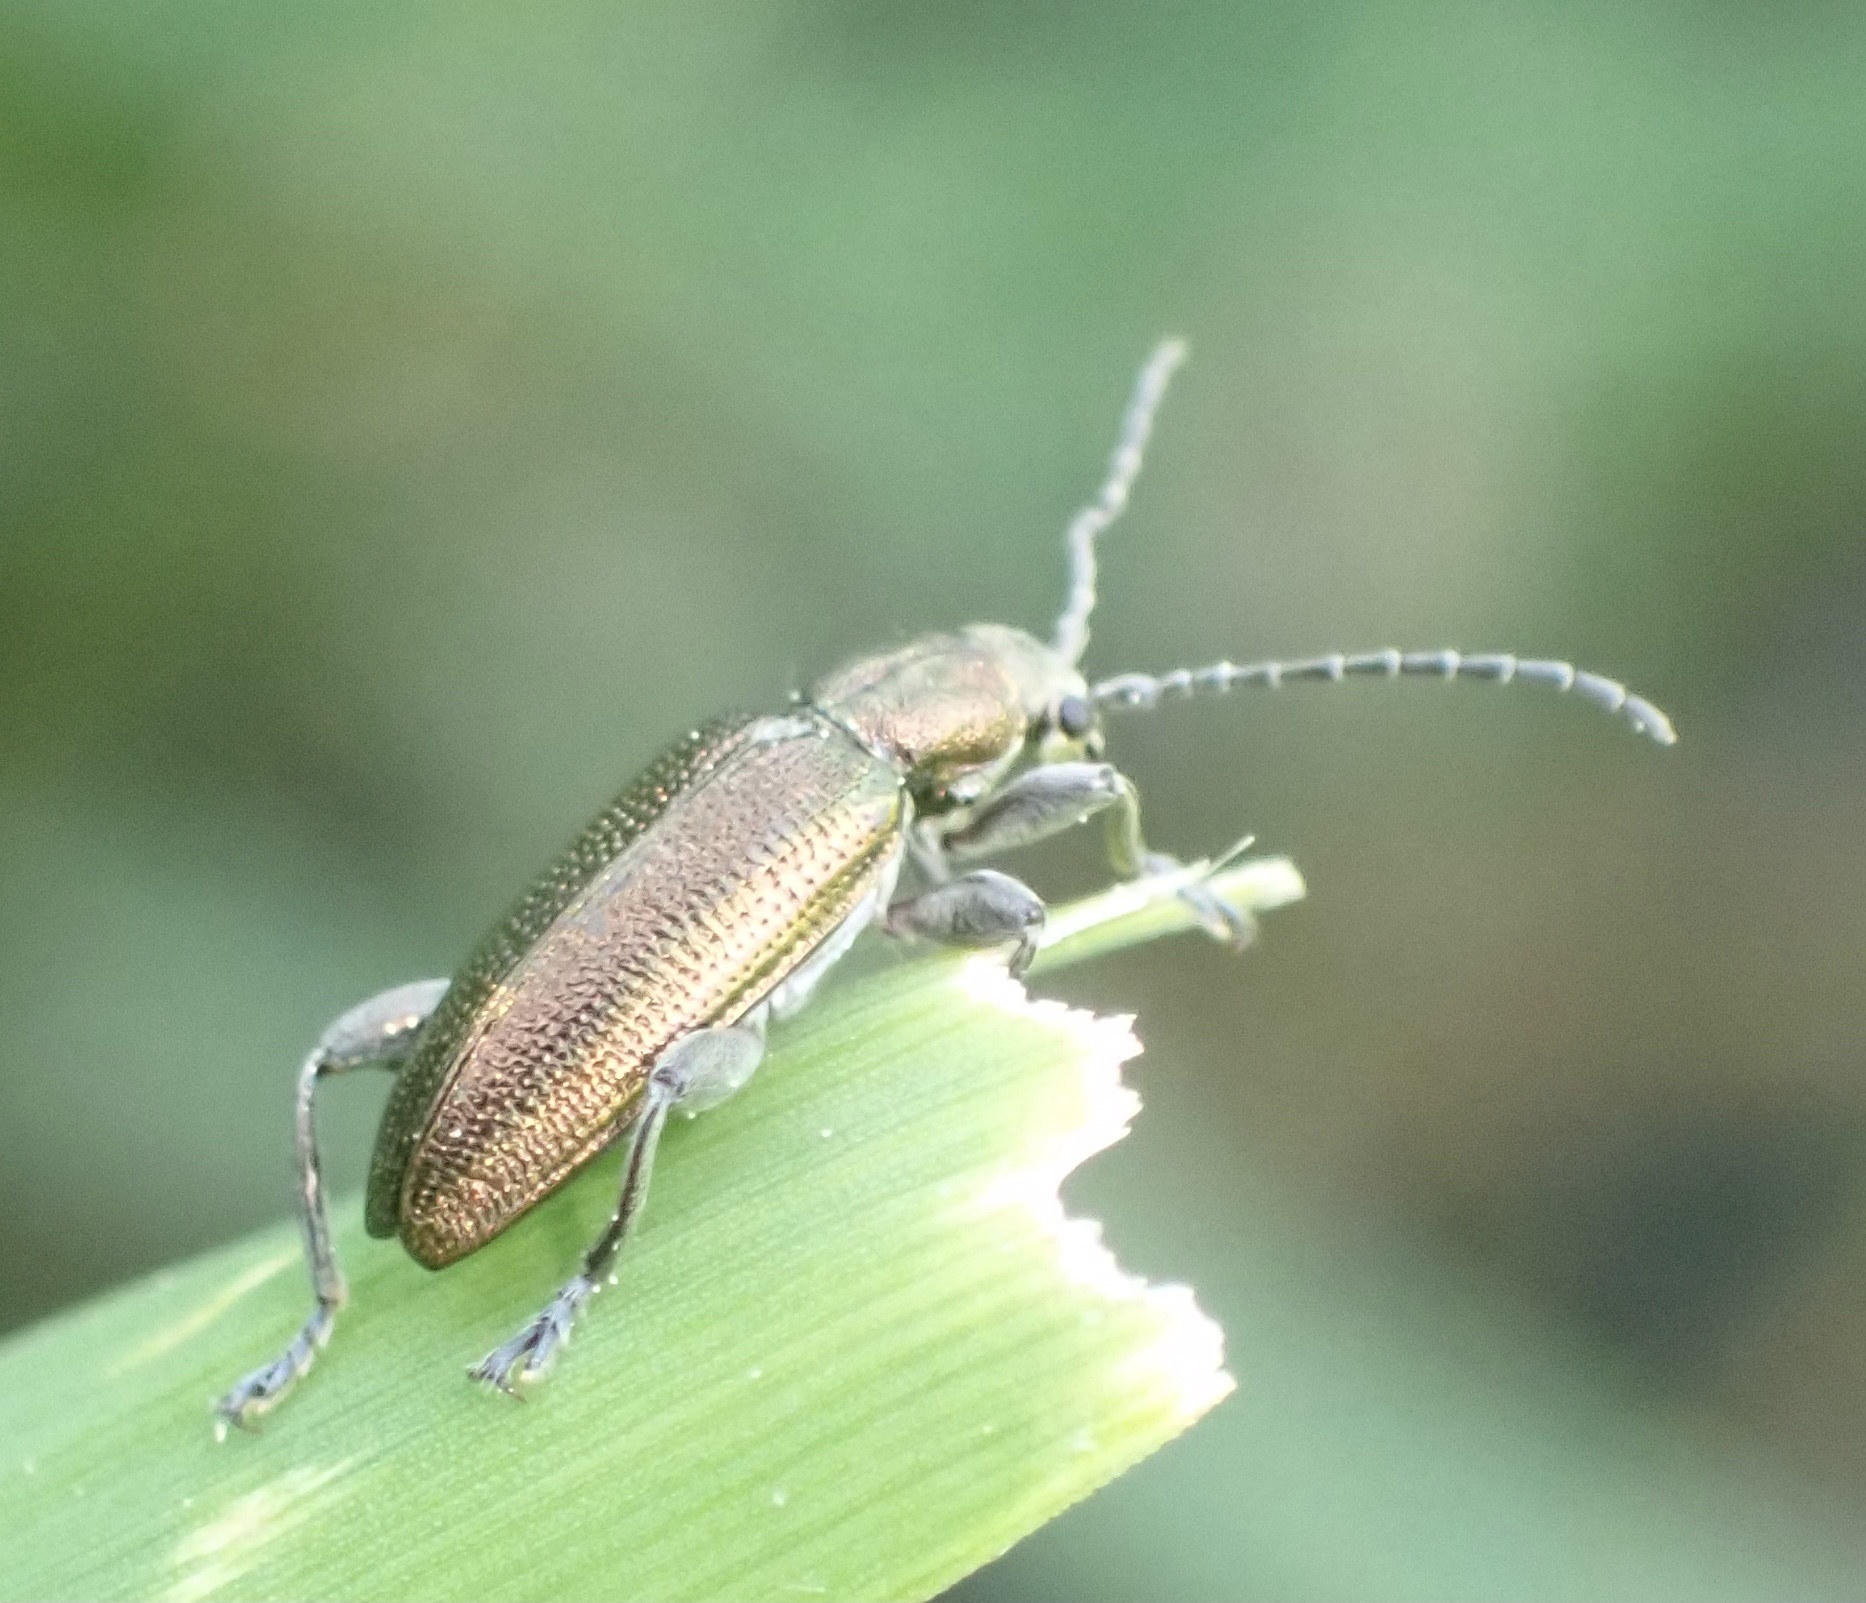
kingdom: Animalia
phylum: Arthropoda
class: Insecta
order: Coleoptera
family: Chrysomelidae
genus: Donacia
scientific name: Donacia semicuprea
